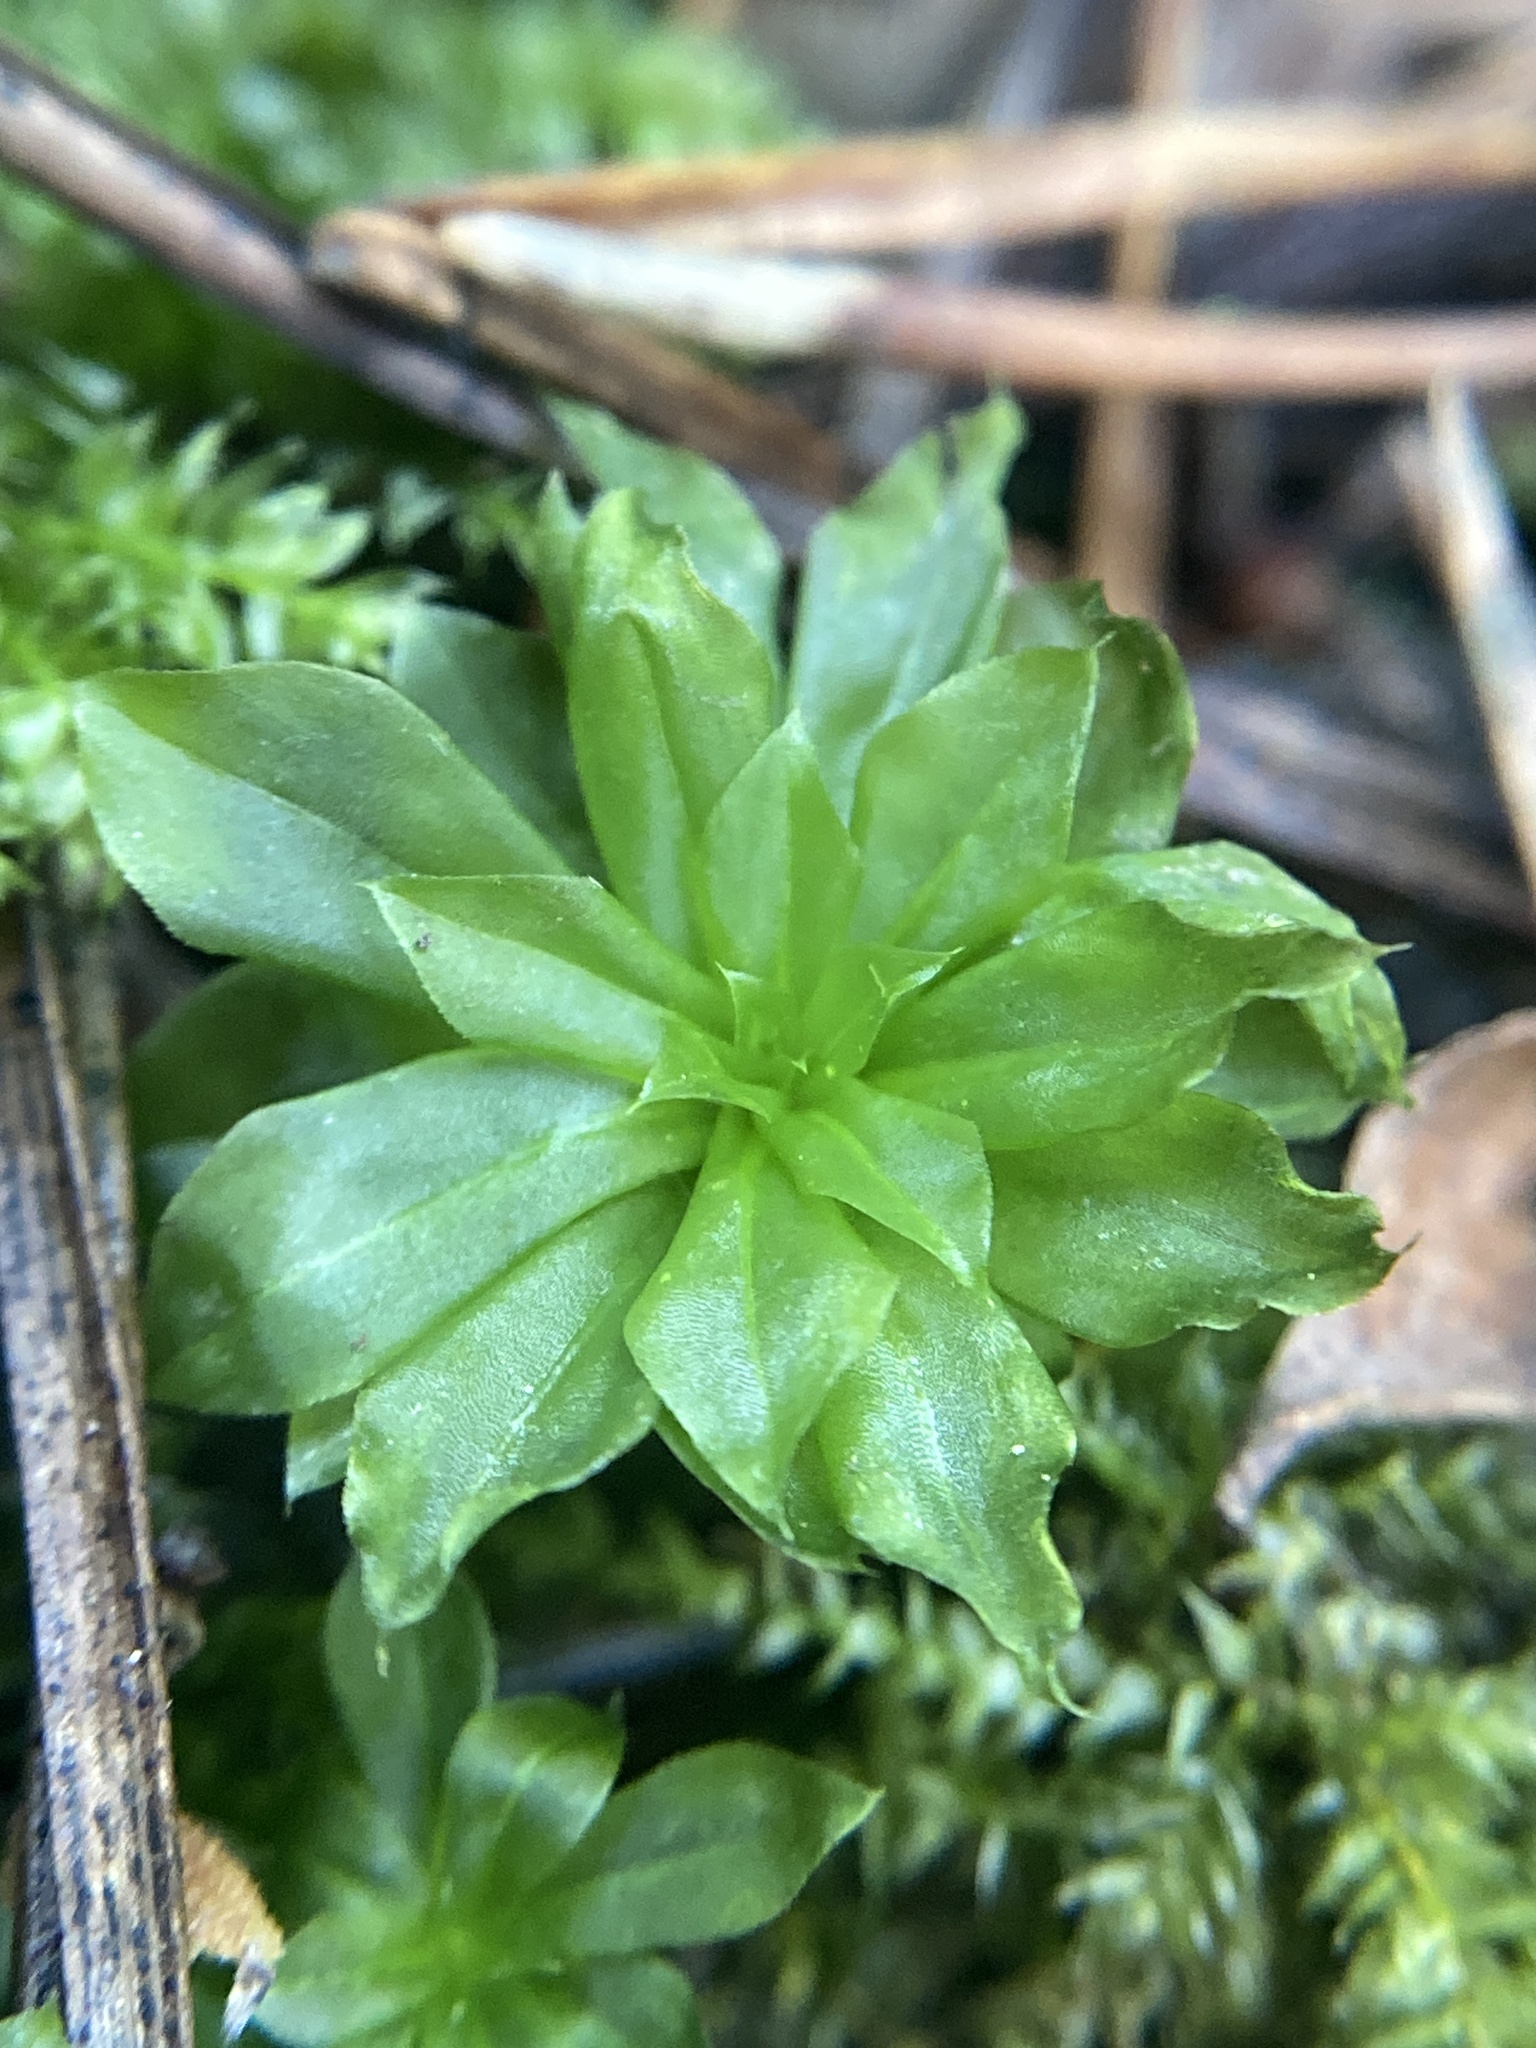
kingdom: Plantae
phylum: Bryophyta
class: Bryopsida
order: Bryales
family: Bryaceae
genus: Rhodobryum
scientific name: Rhodobryum roseum
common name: Rose-moss
